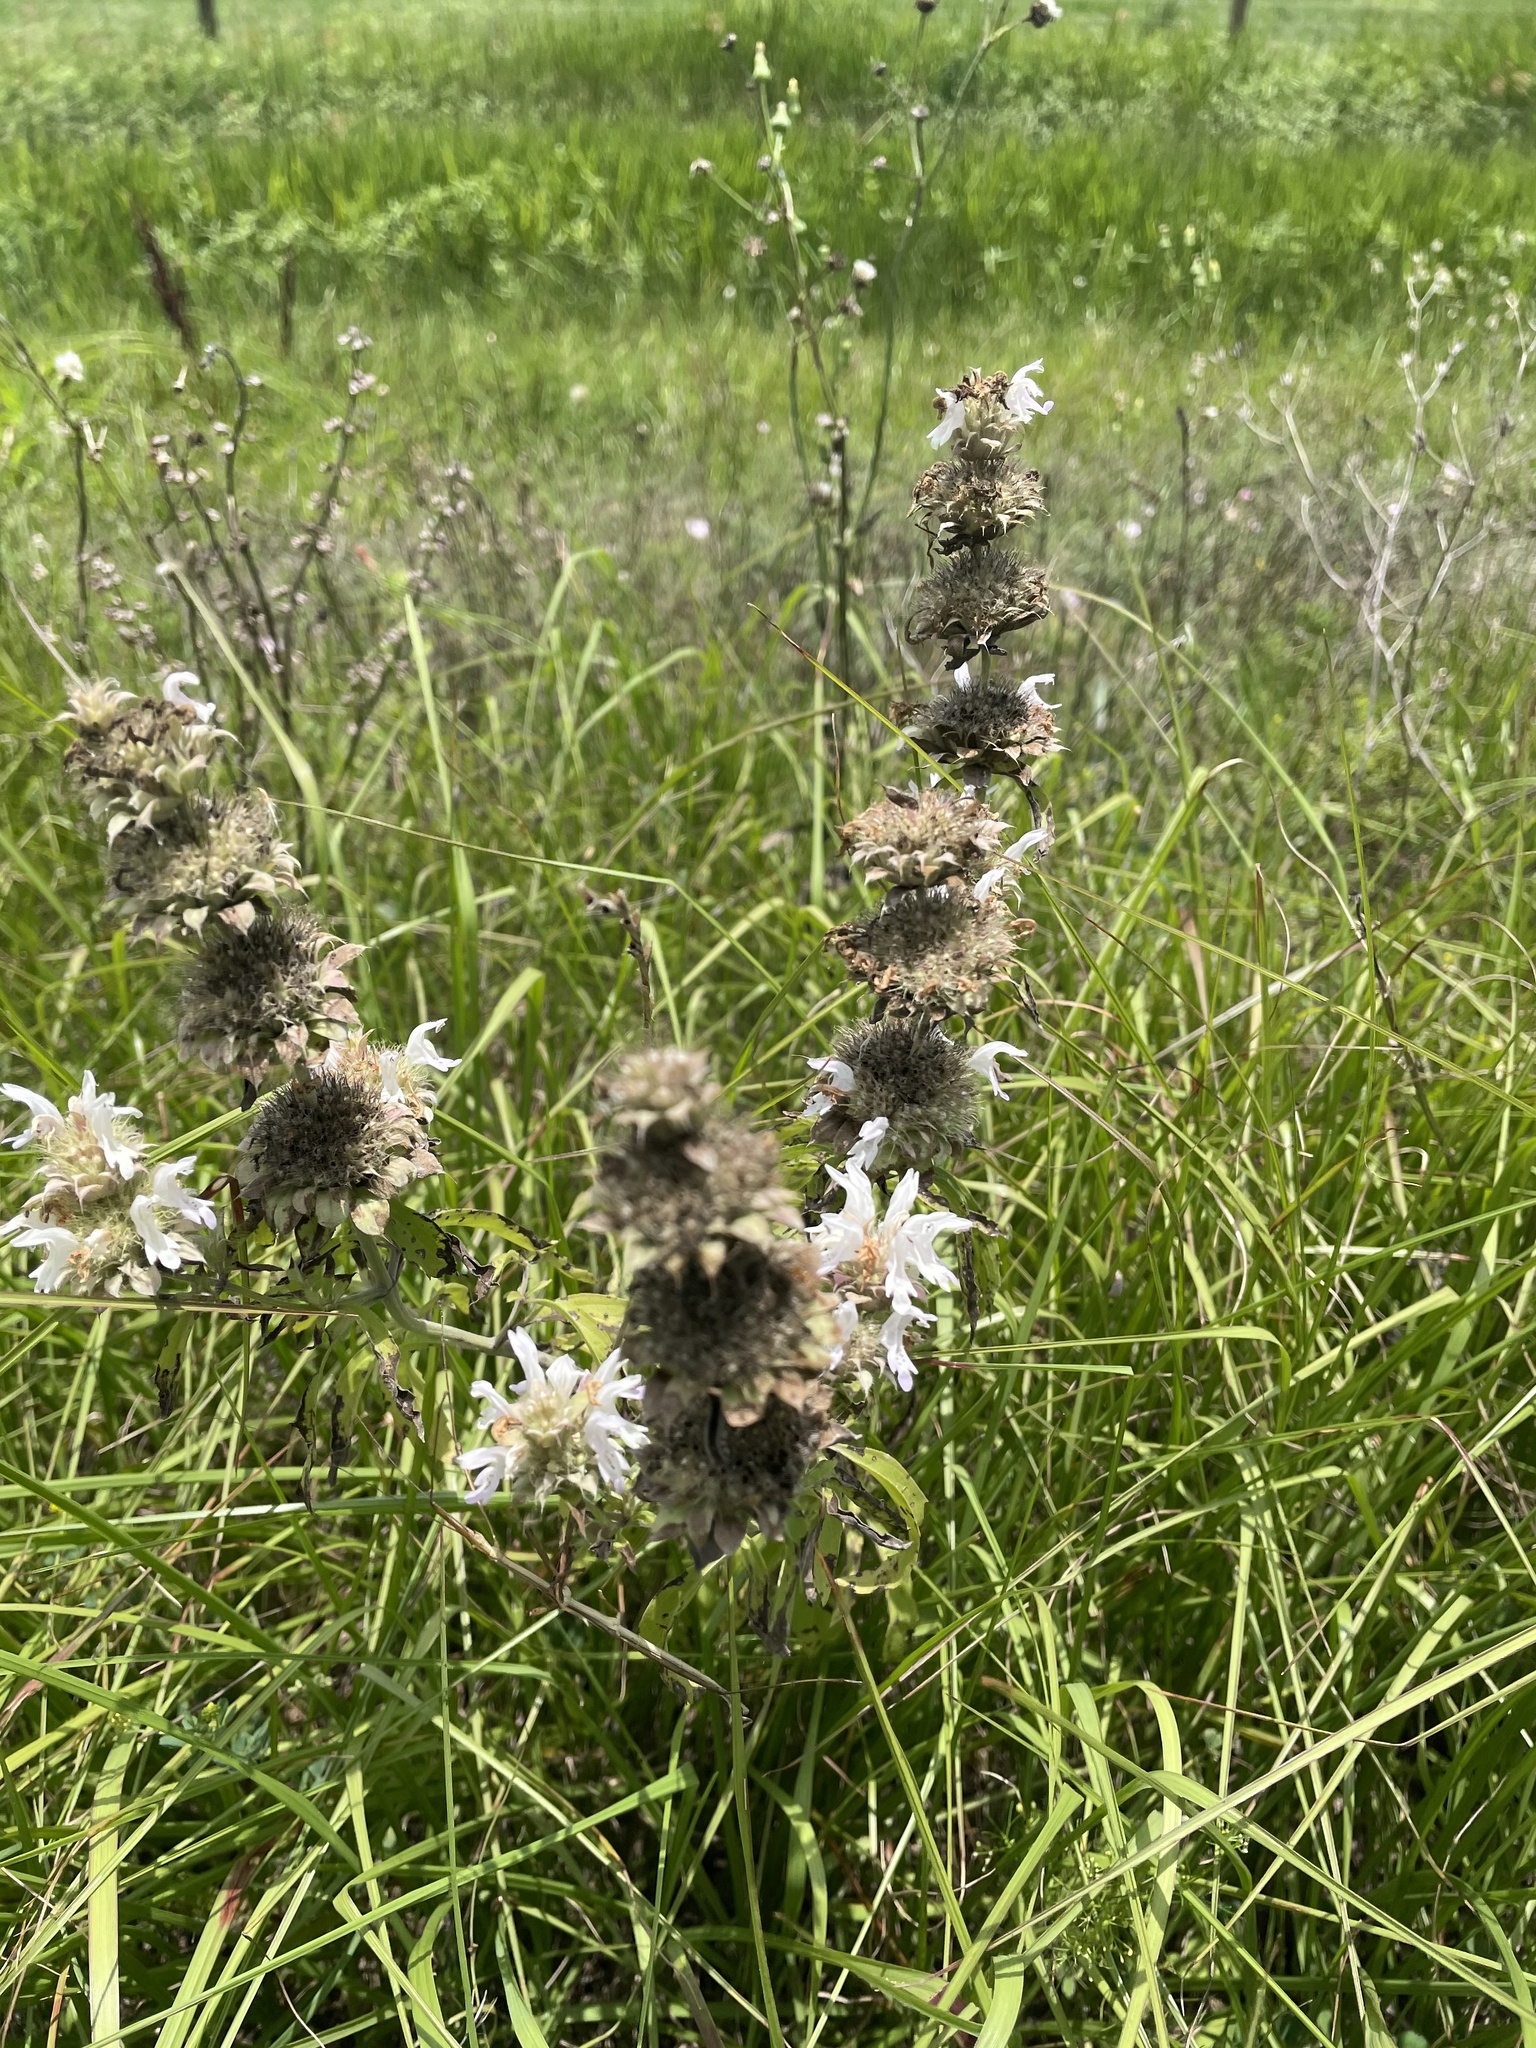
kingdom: Plantae
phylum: Tracheophyta
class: Magnoliopsida
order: Lamiales
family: Lamiaceae
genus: Monarda
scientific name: Monarda citriodora
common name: Lemon beebalm
